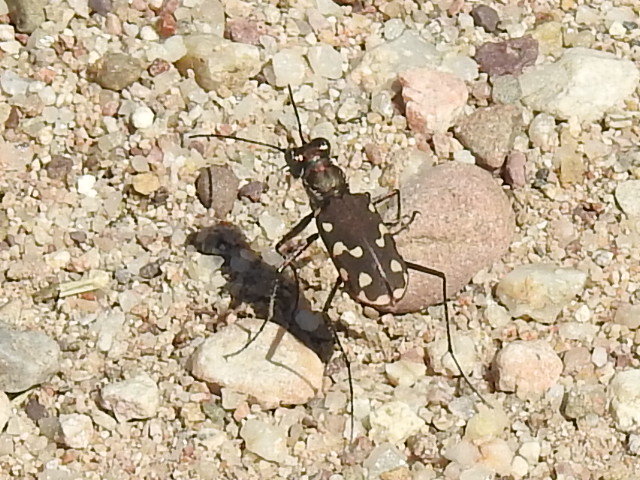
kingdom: Animalia
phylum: Arthropoda
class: Insecta
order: Coleoptera
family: Carabidae
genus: Cicindela
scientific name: Cicindela sedecimpunctata
